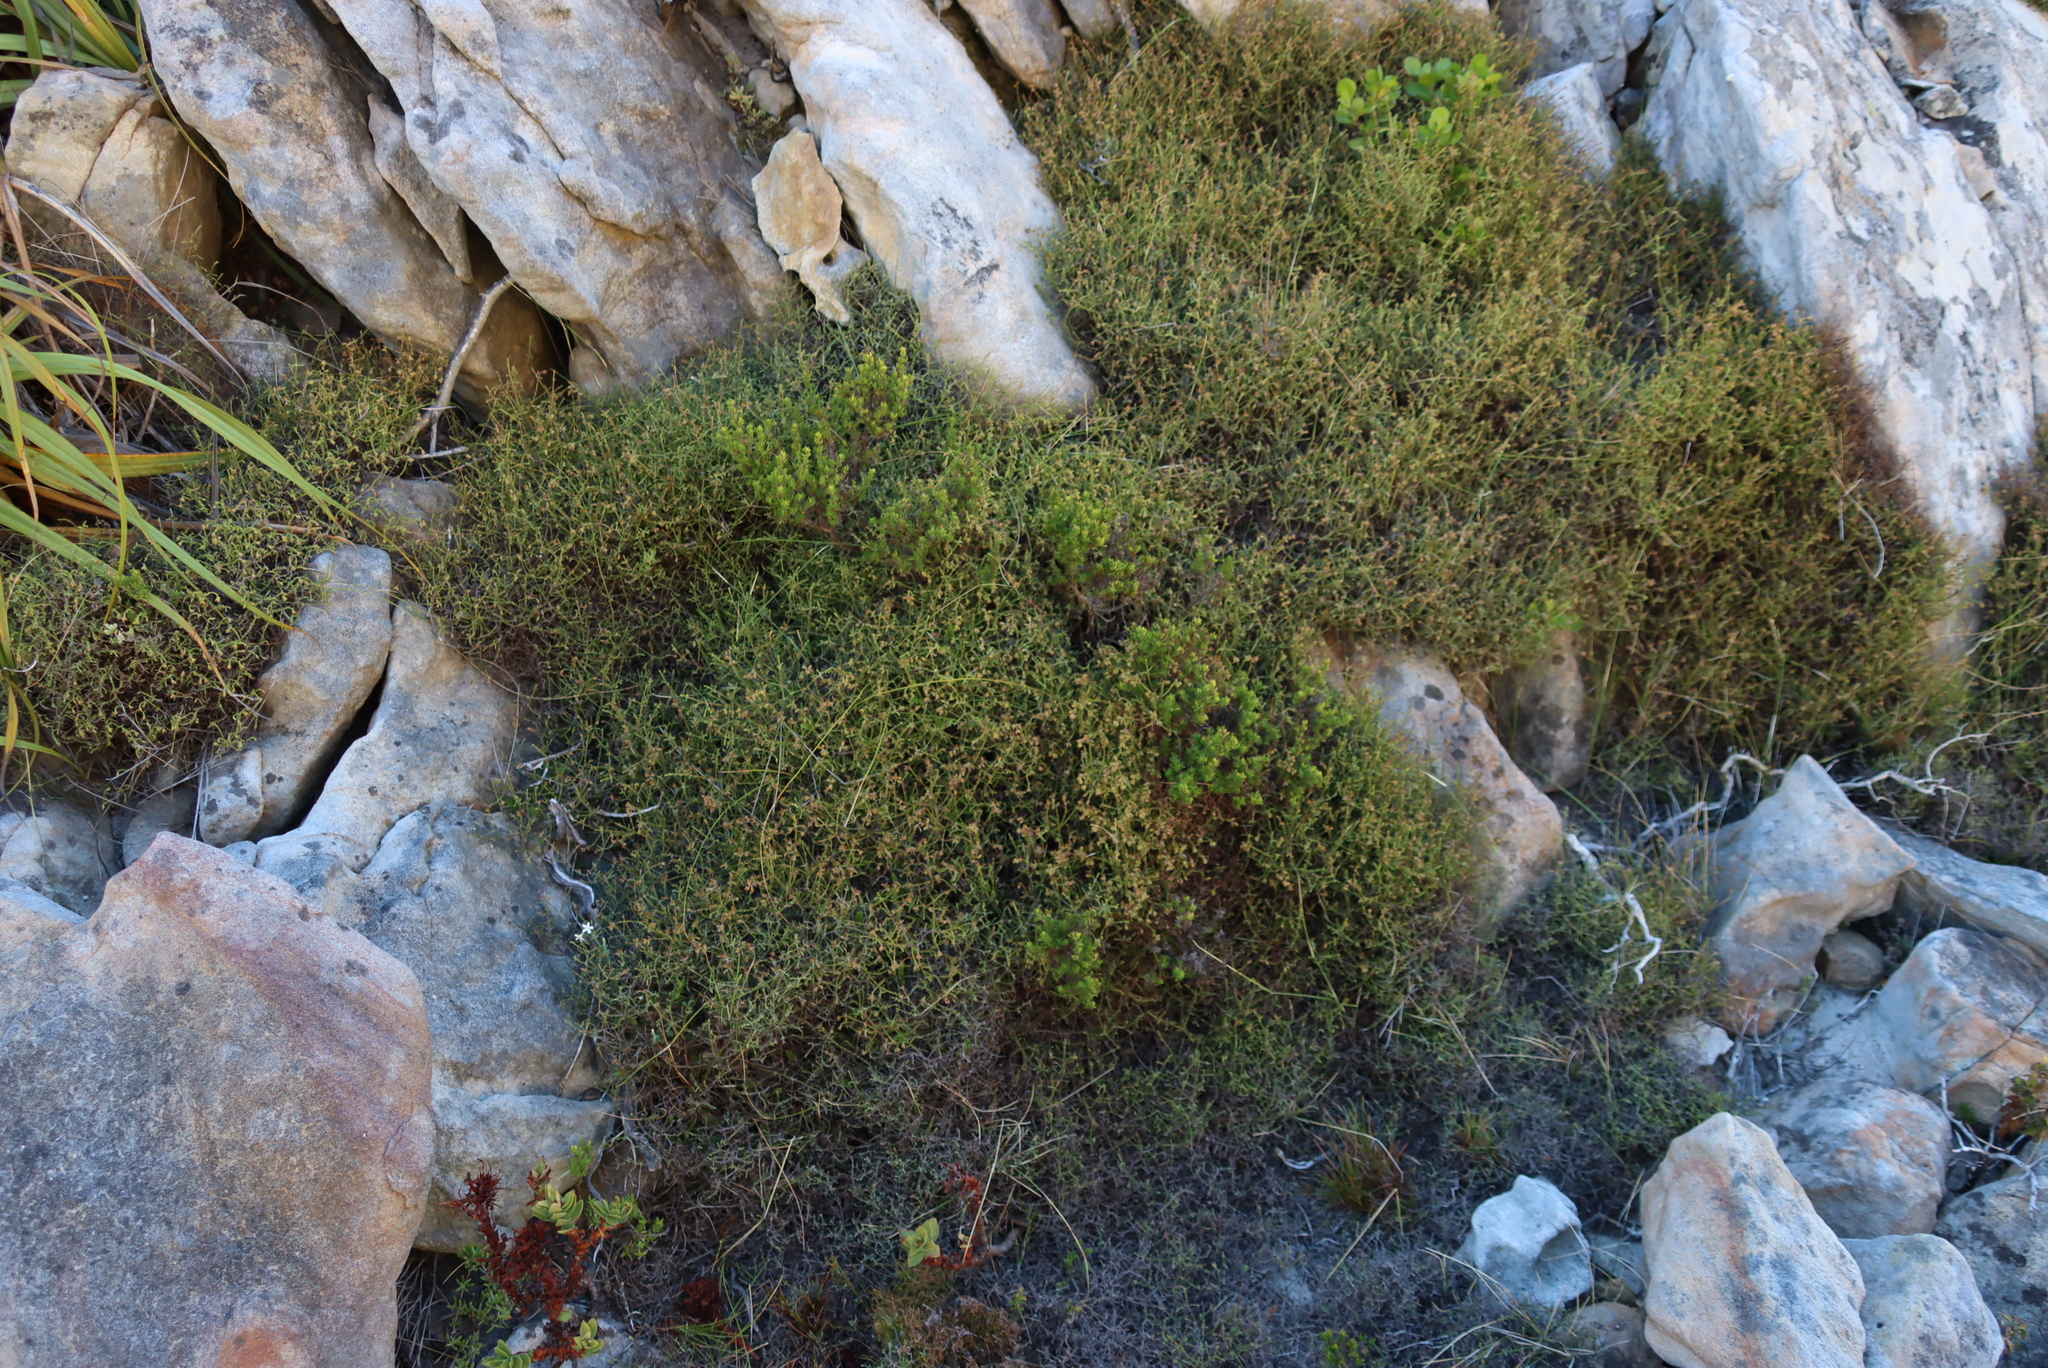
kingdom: Plantae
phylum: Tracheophyta
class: Magnoliopsida
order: Asterales
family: Asteraceae
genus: Myrovernix
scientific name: Myrovernix scaber
